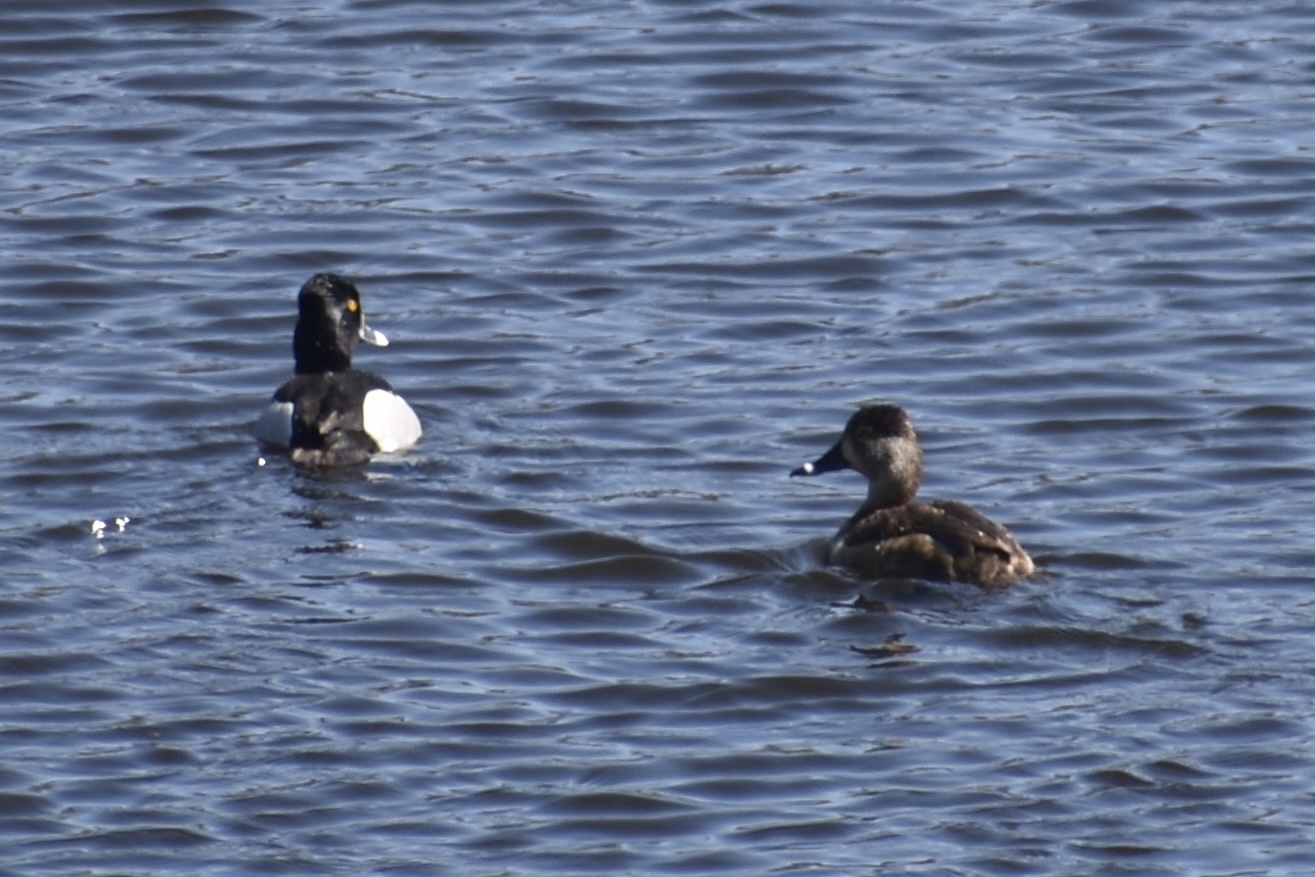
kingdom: Animalia
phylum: Chordata
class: Aves
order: Anseriformes
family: Anatidae
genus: Aythya
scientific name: Aythya collaris
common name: Ring-necked duck
